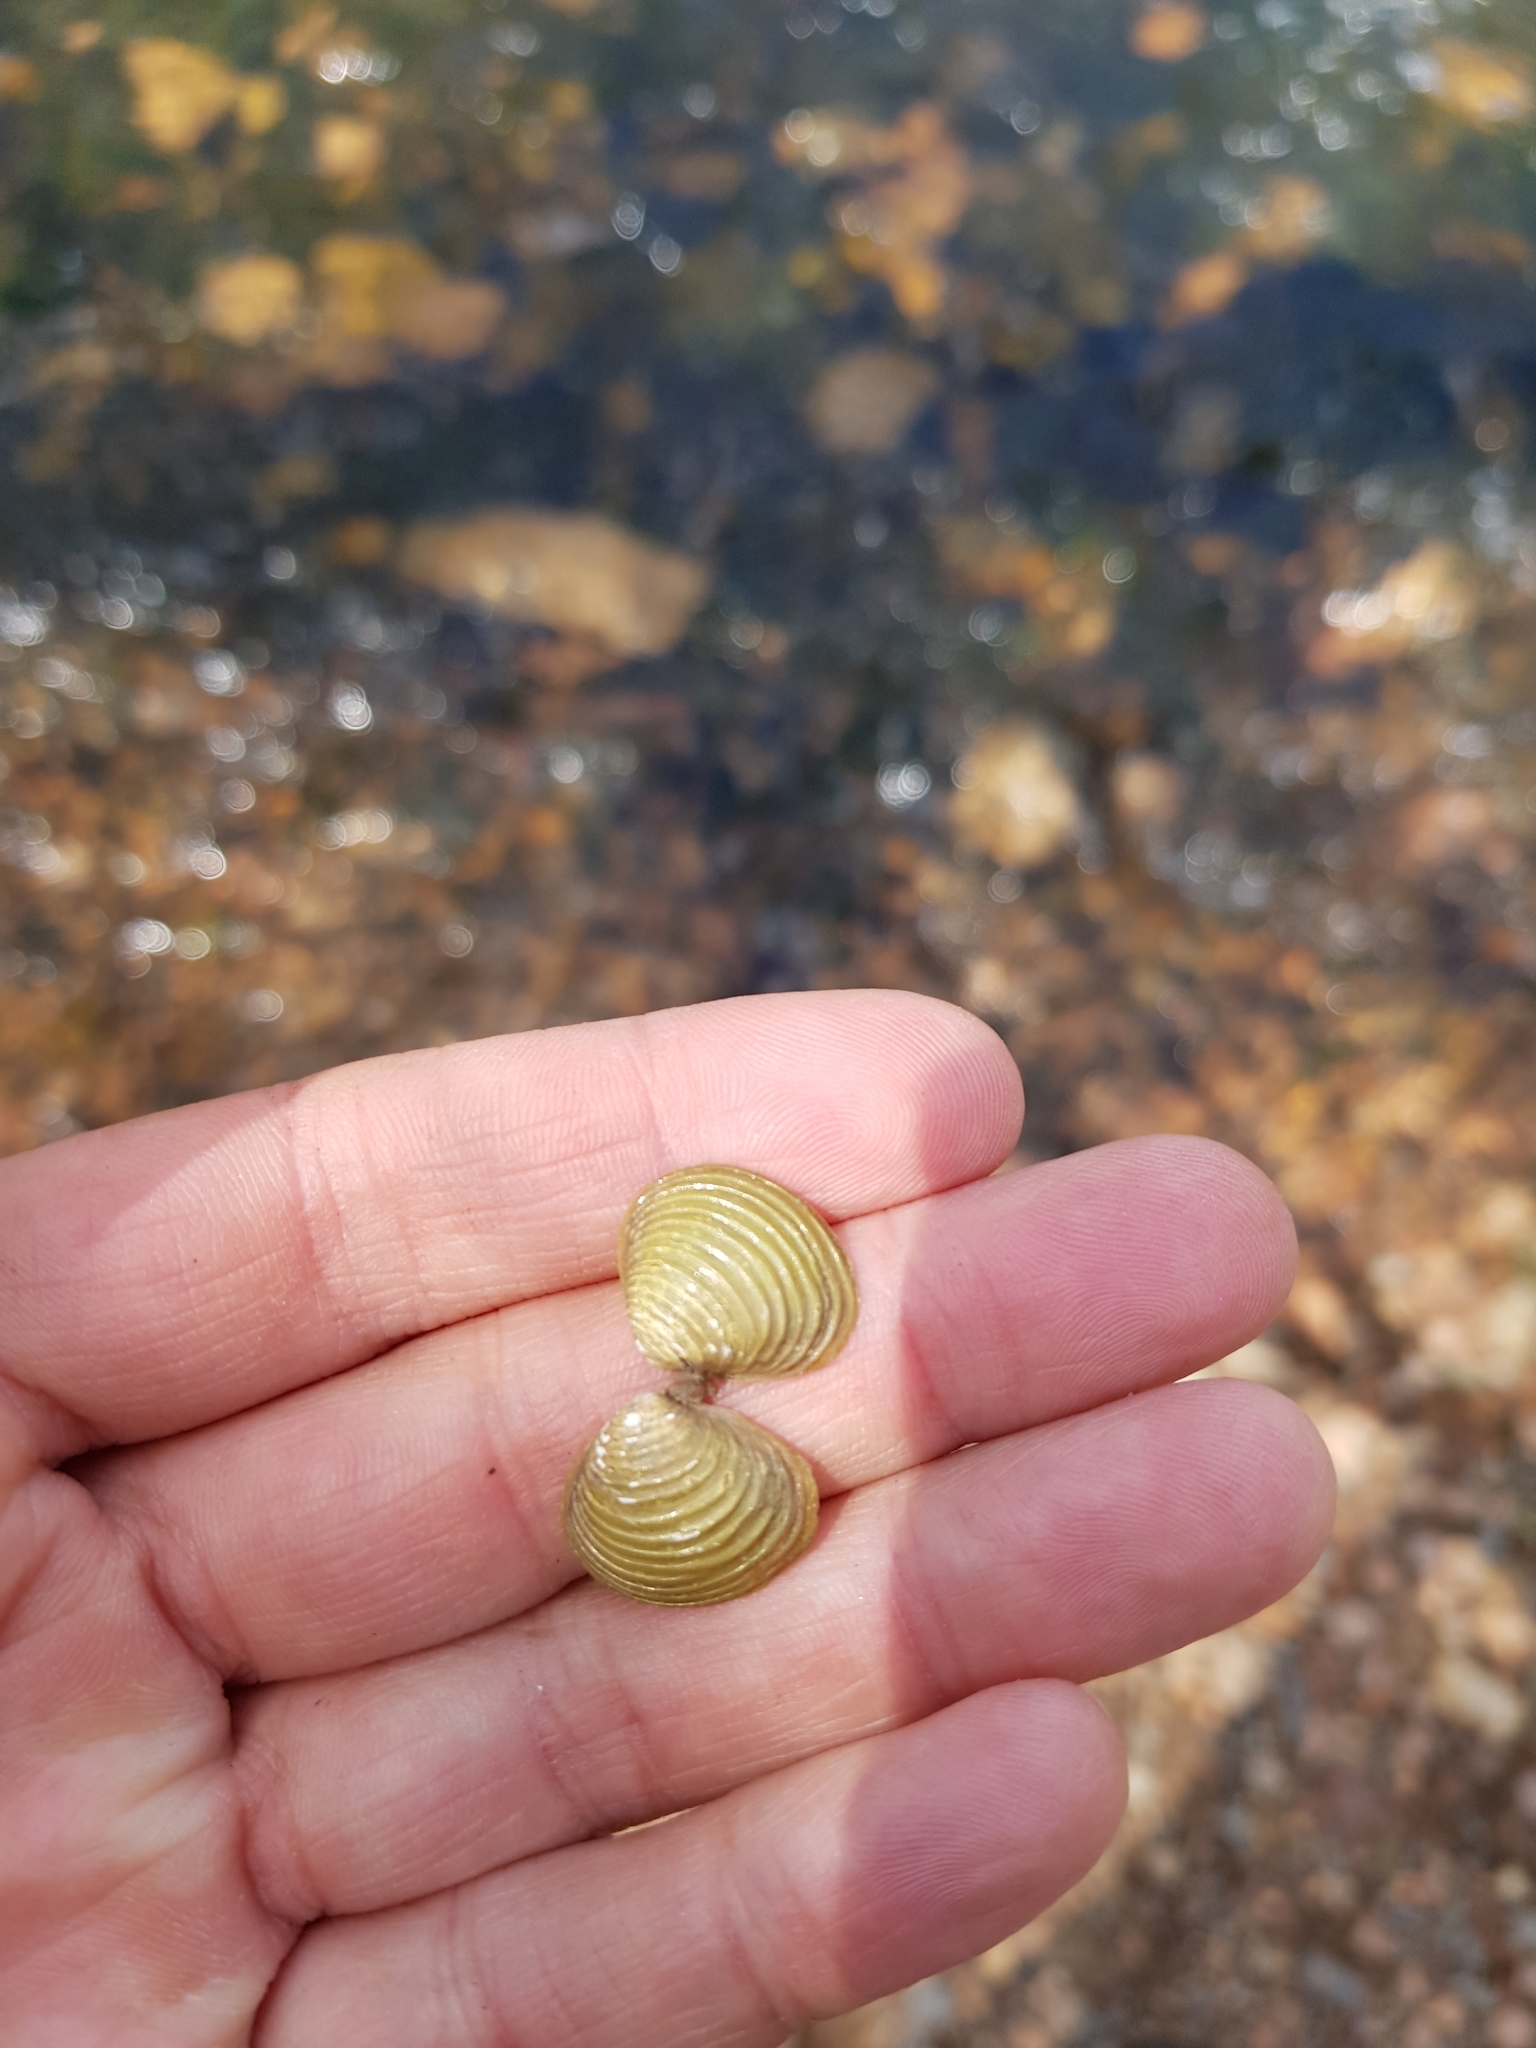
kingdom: Animalia
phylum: Mollusca
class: Bivalvia
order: Venerida
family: Cyrenidae
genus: Corbicula
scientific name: Corbicula fluminea
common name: Asian clam
